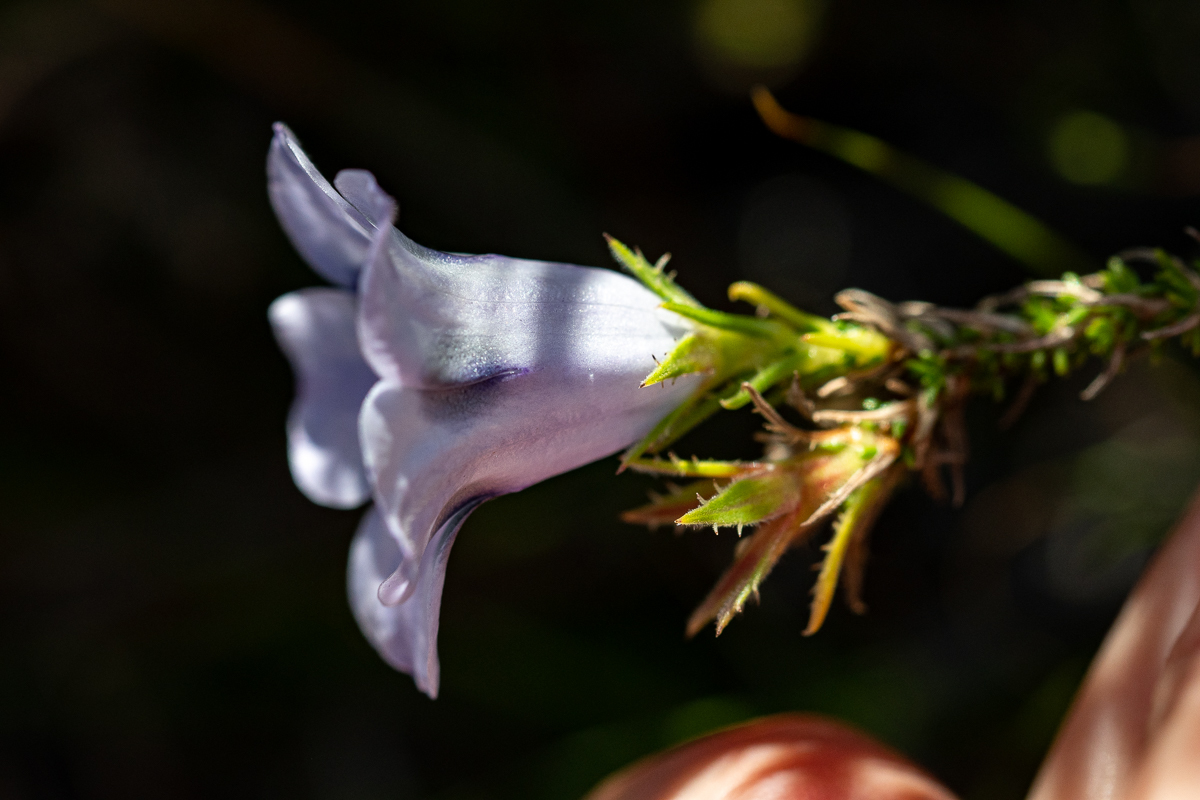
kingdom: Plantae
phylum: Tracheophyta
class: Magnoliopsida
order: Asterales
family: Campanulaceae
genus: Roella
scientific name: Roella maculata
